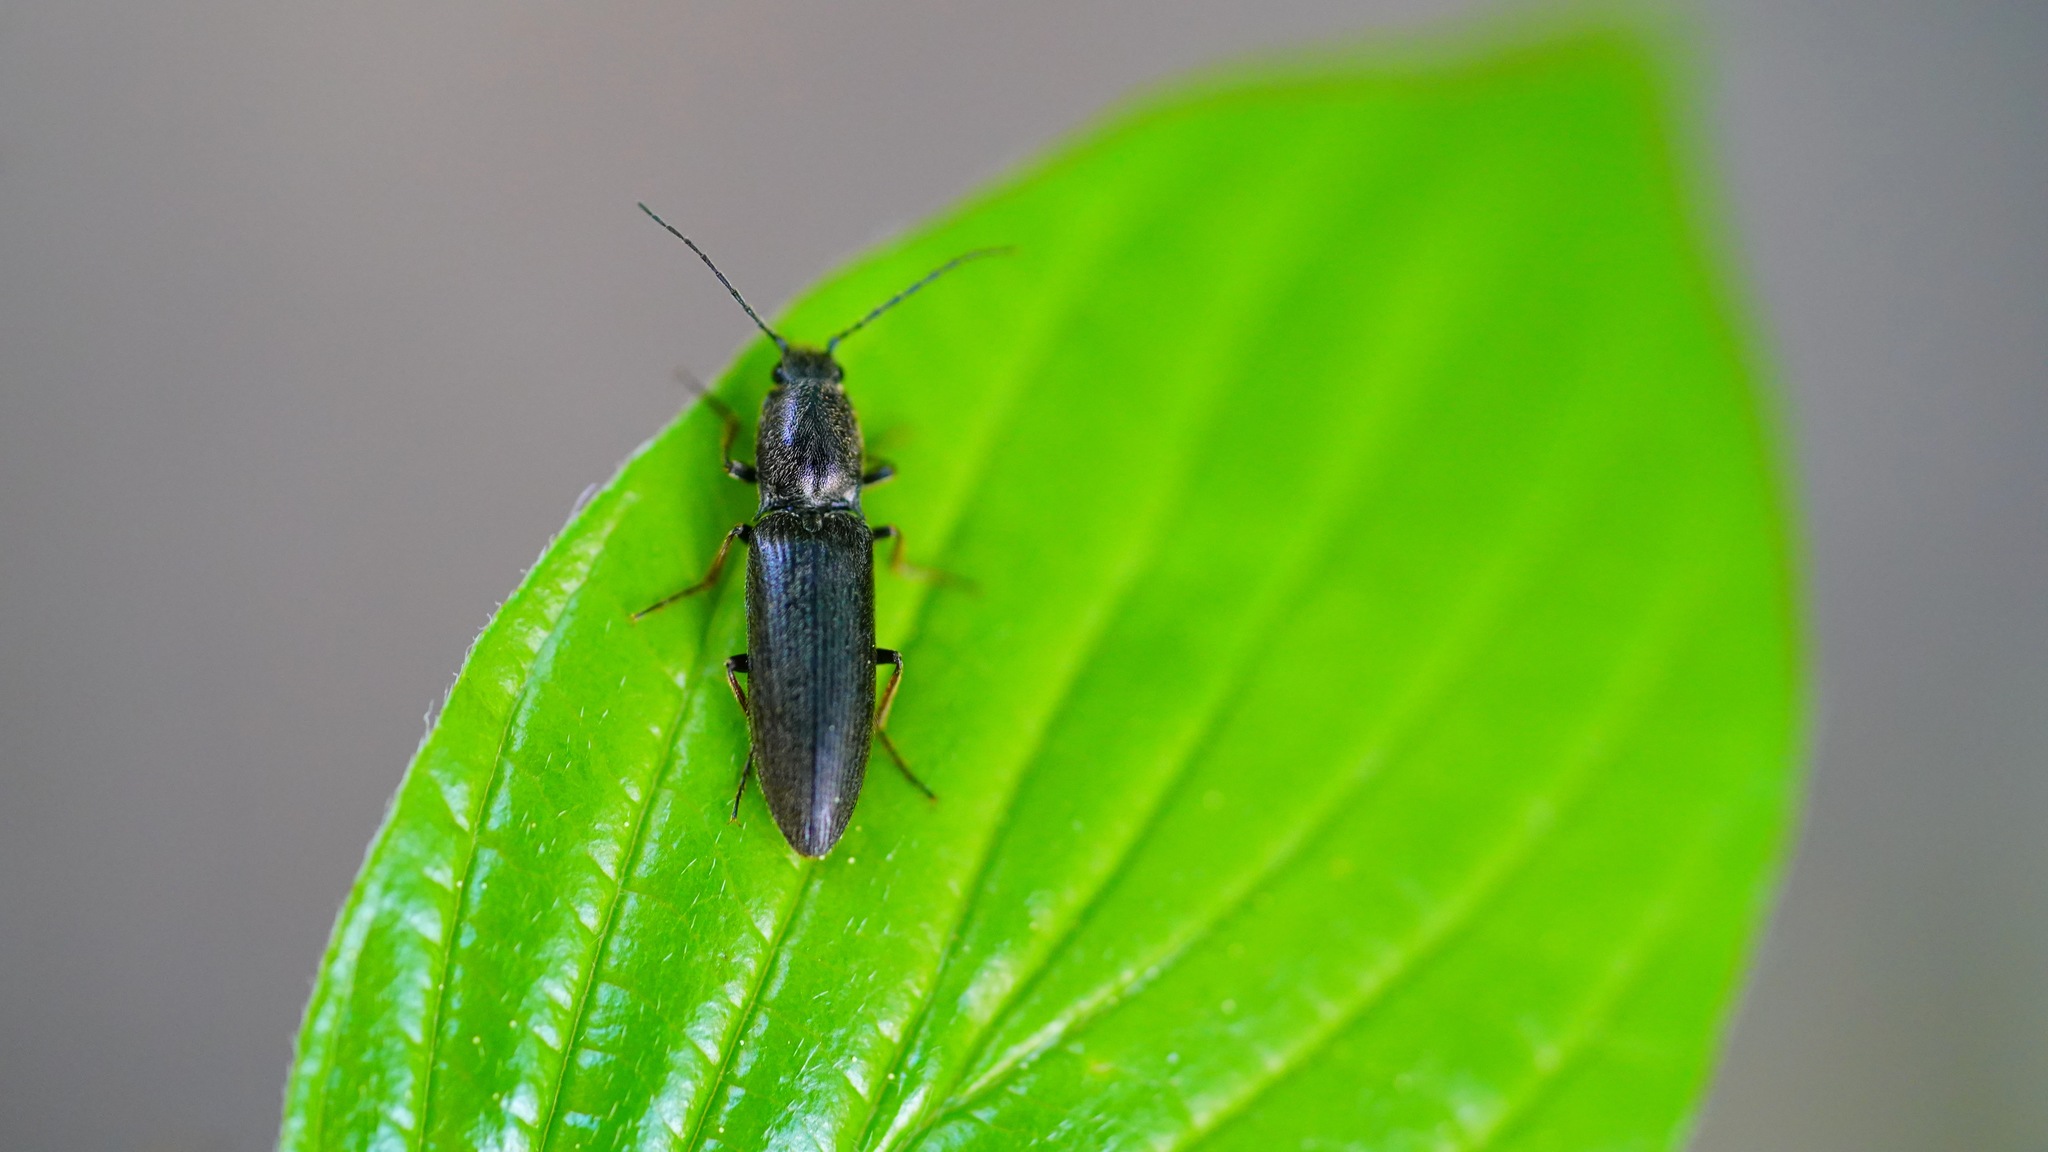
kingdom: Animalia
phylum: Arthropoda
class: Insecta
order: Coleoptera
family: Elateridae
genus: Sylvanelater
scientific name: Sylvanelater furtivus
